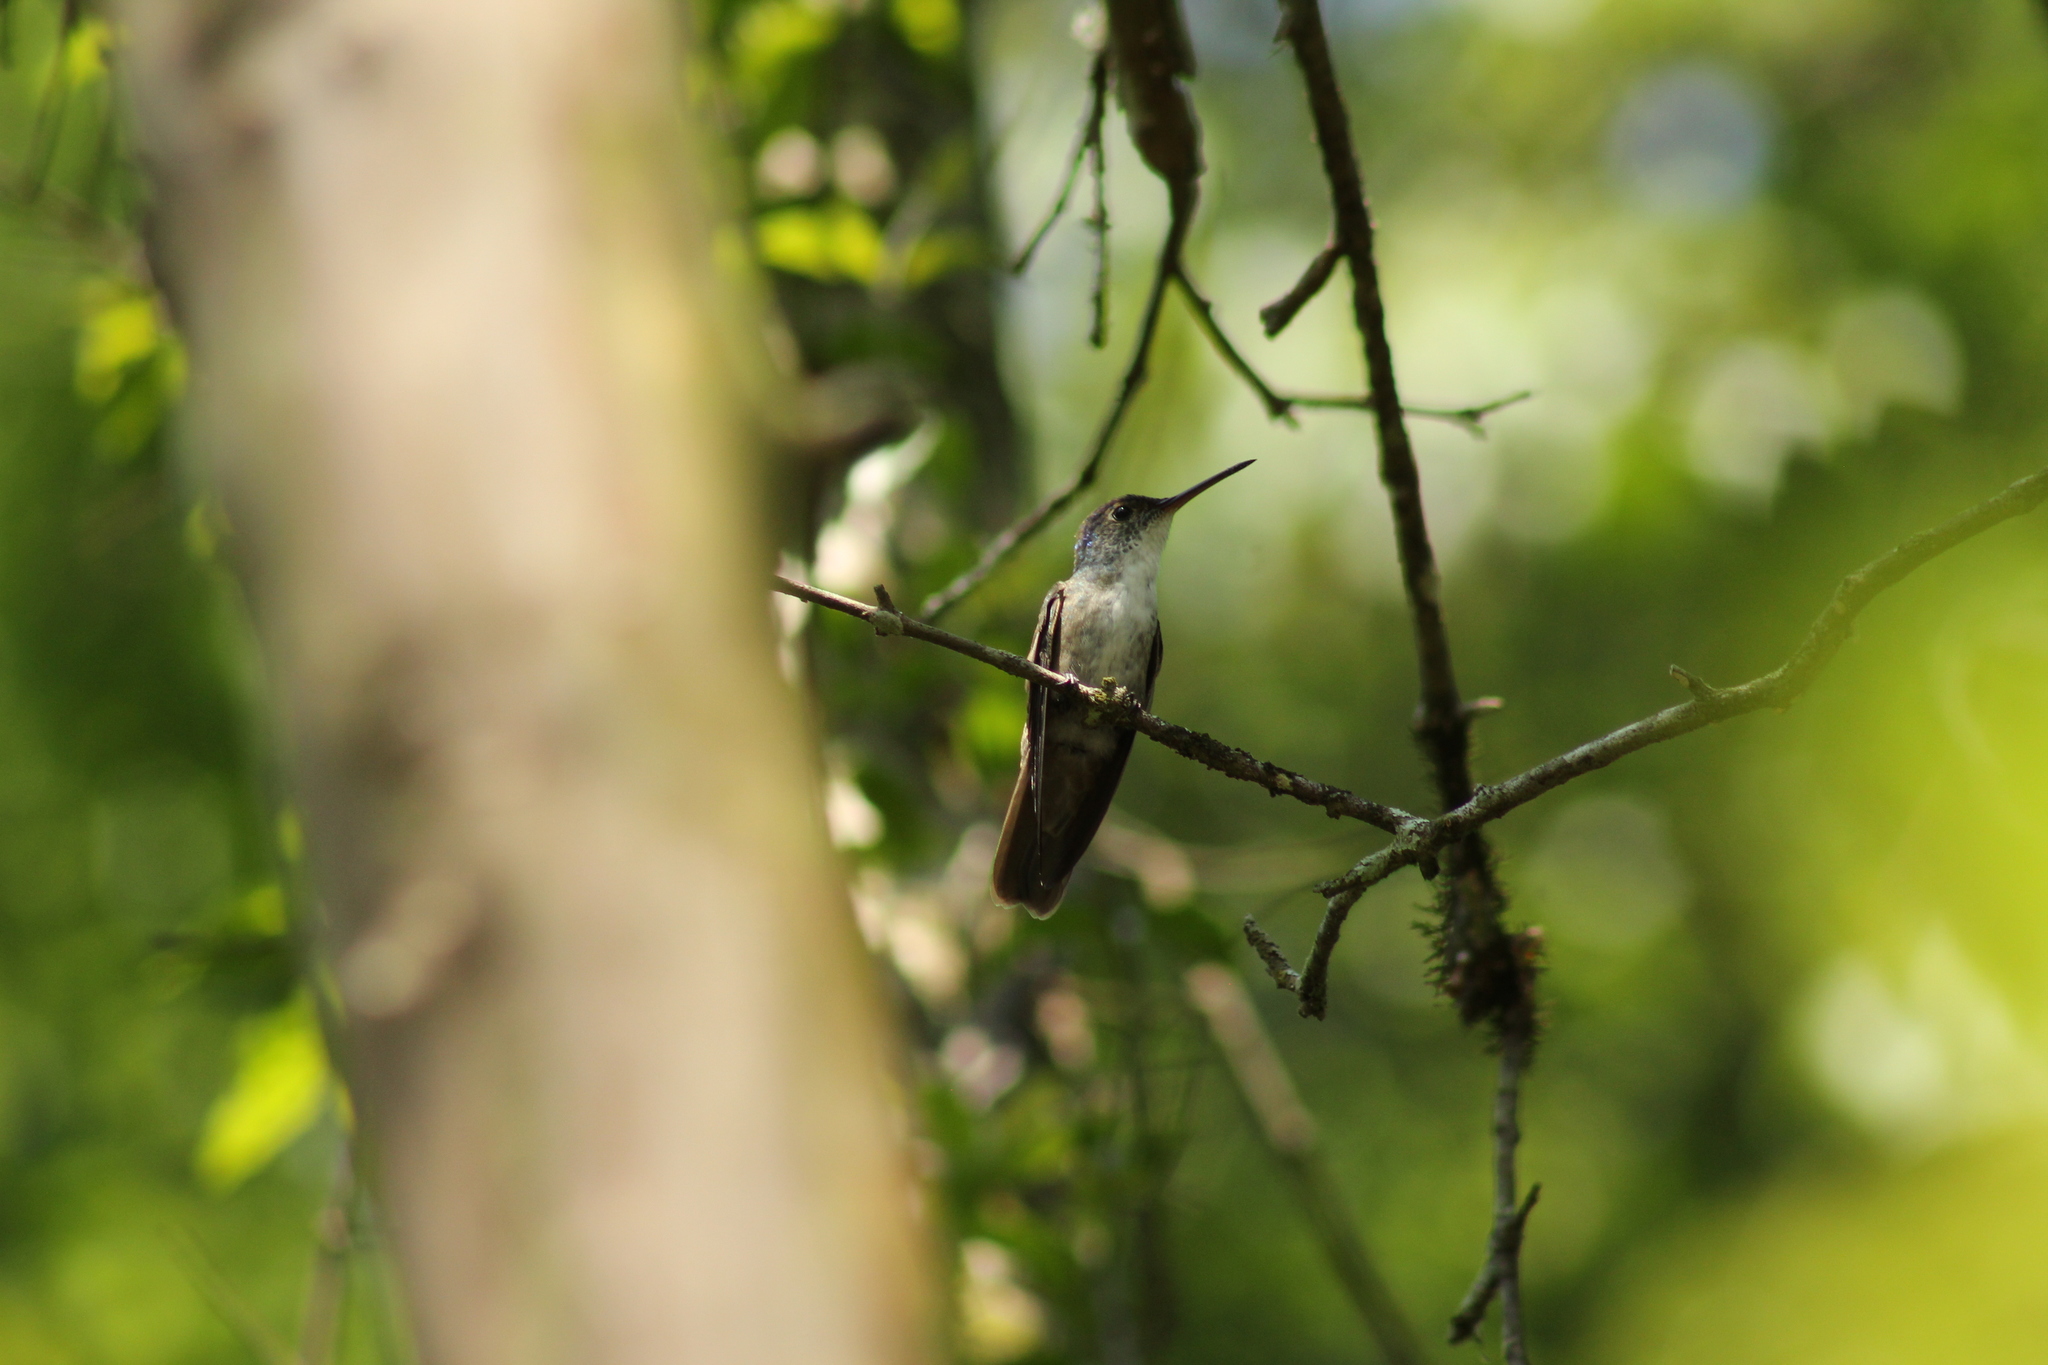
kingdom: Animalia
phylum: Chordata
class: Aves
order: Apodiformes
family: Trochilidae
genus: Saucerottia
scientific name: Saucerottia cyanocephala
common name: Azure-crowned hummingbird
